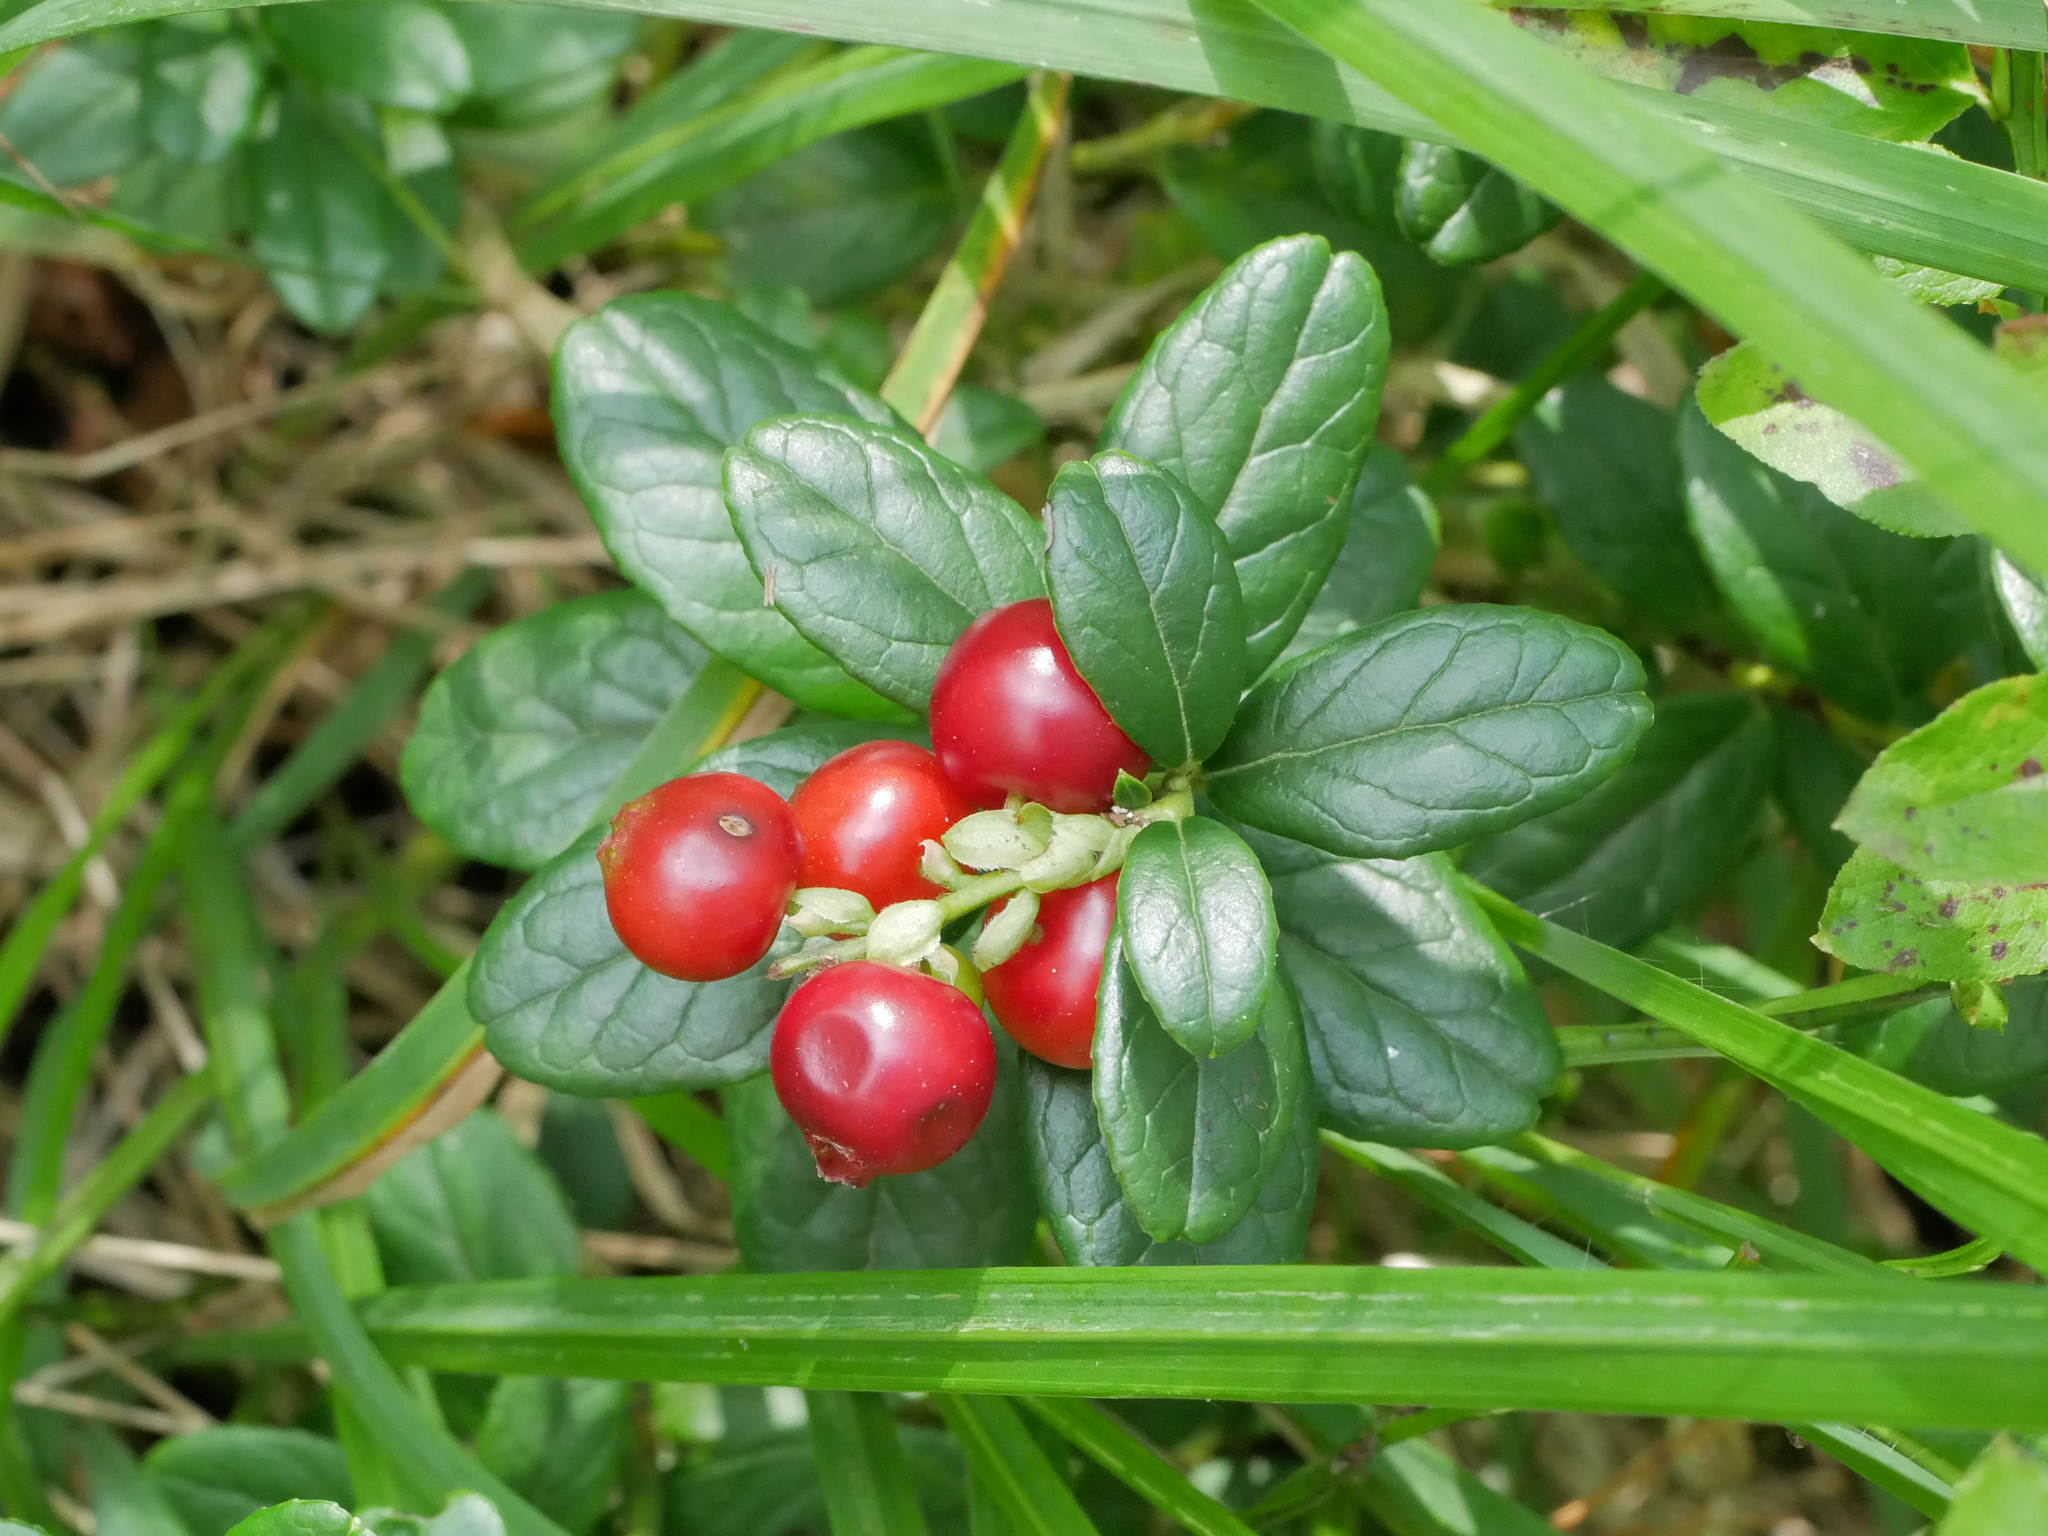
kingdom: Plantae
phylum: Tracheophyta
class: Magnoliopsida
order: Ericales
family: Ericaceae
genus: Vaccinium
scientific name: Vaccinium vitis-idaea
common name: Cowberry
